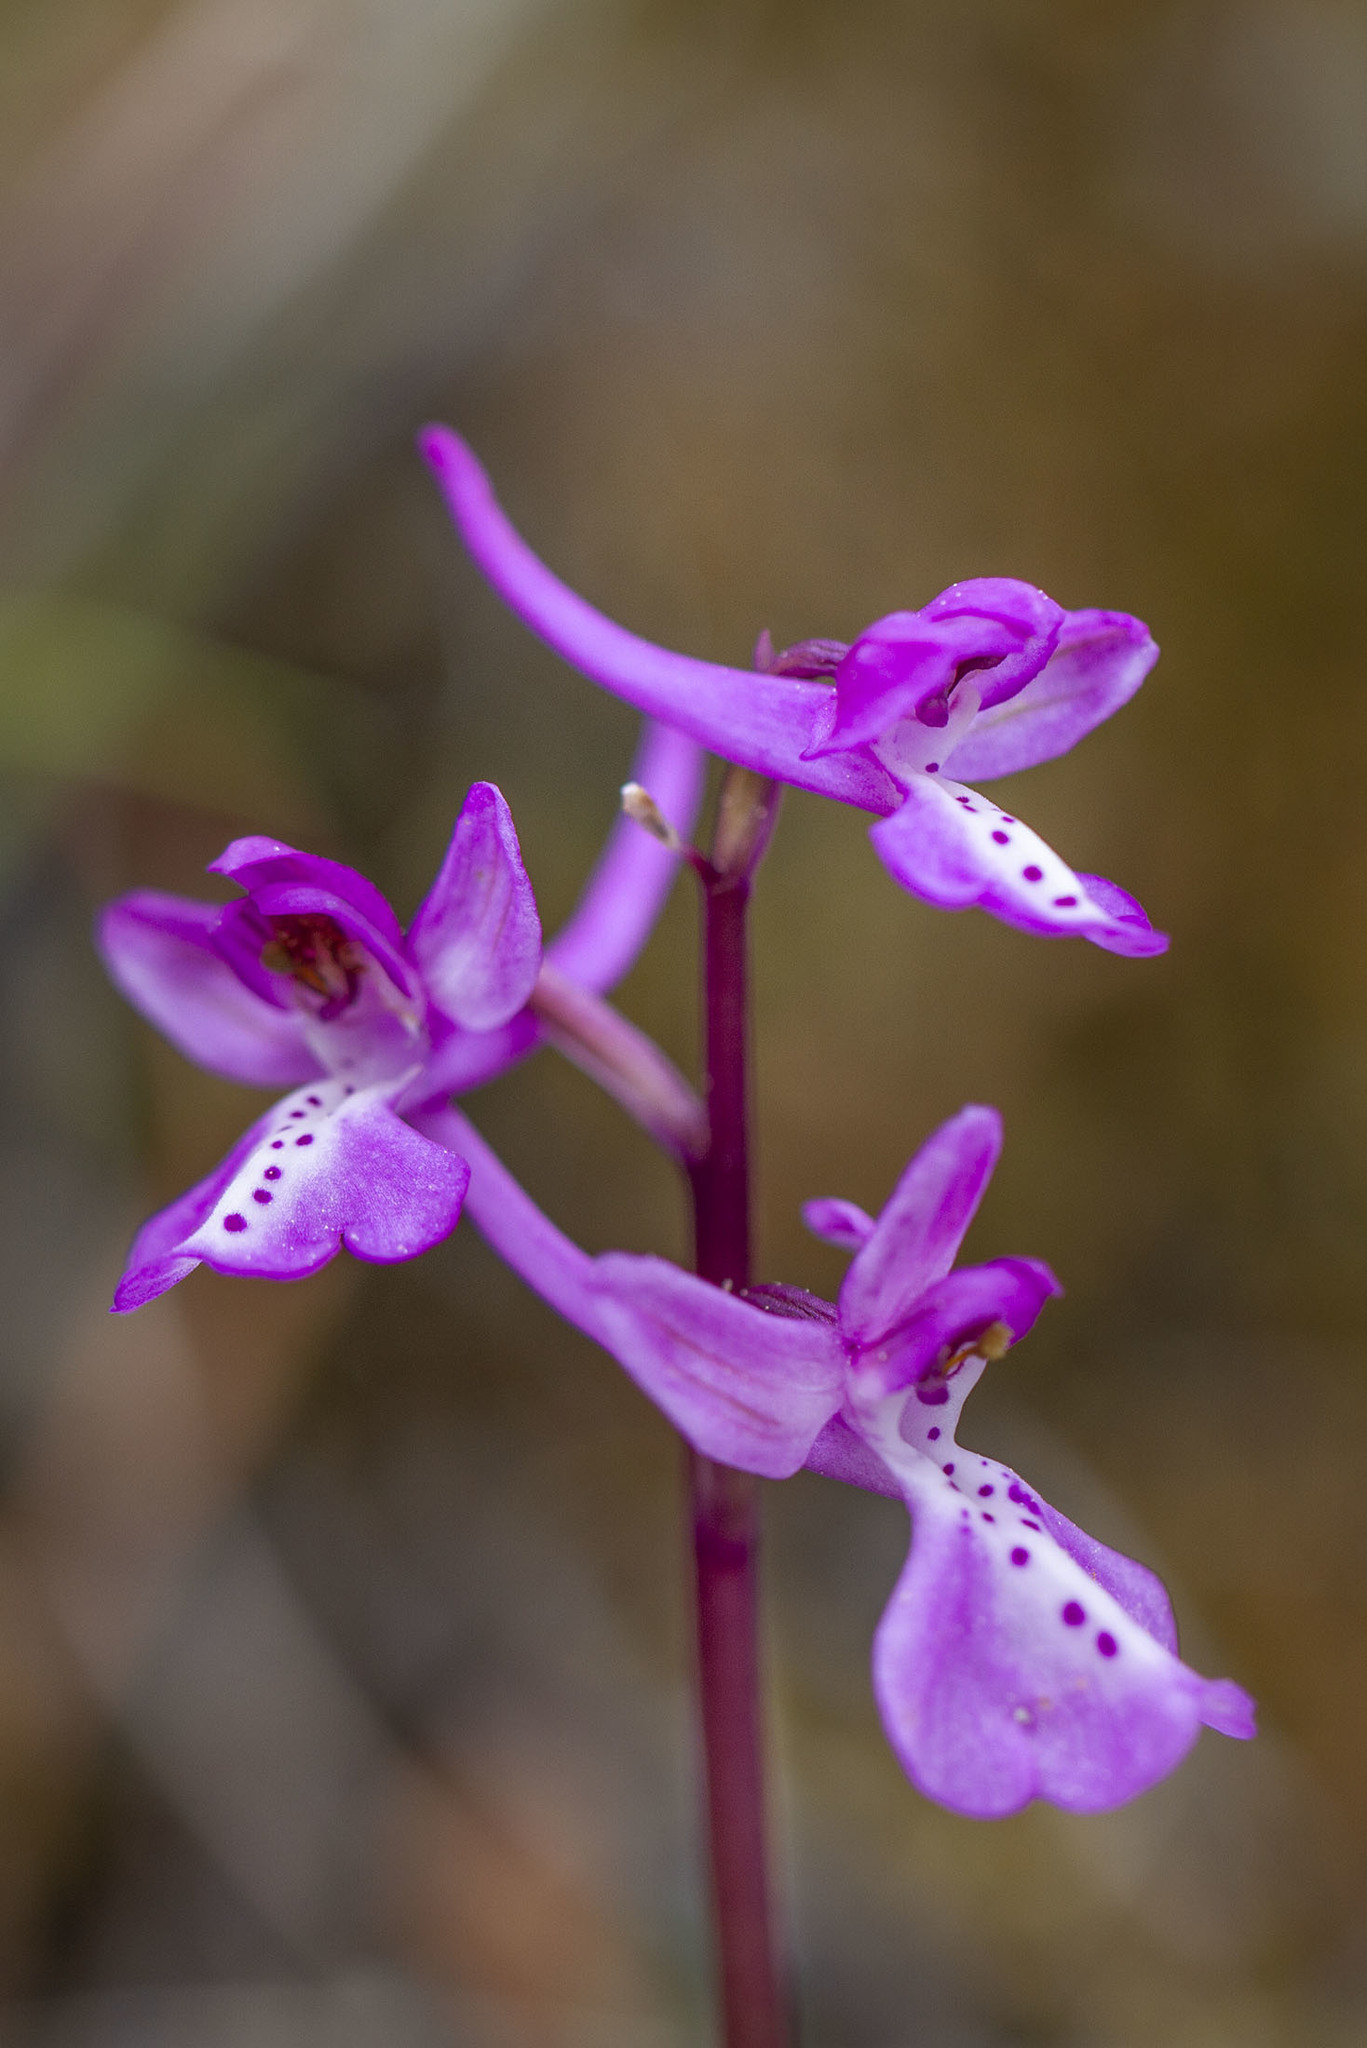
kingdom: Plantae
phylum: Tracheophyta
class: Liliopsida
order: Asparagales
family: Orchidaceae
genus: Orchis
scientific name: Orchis anatolica
